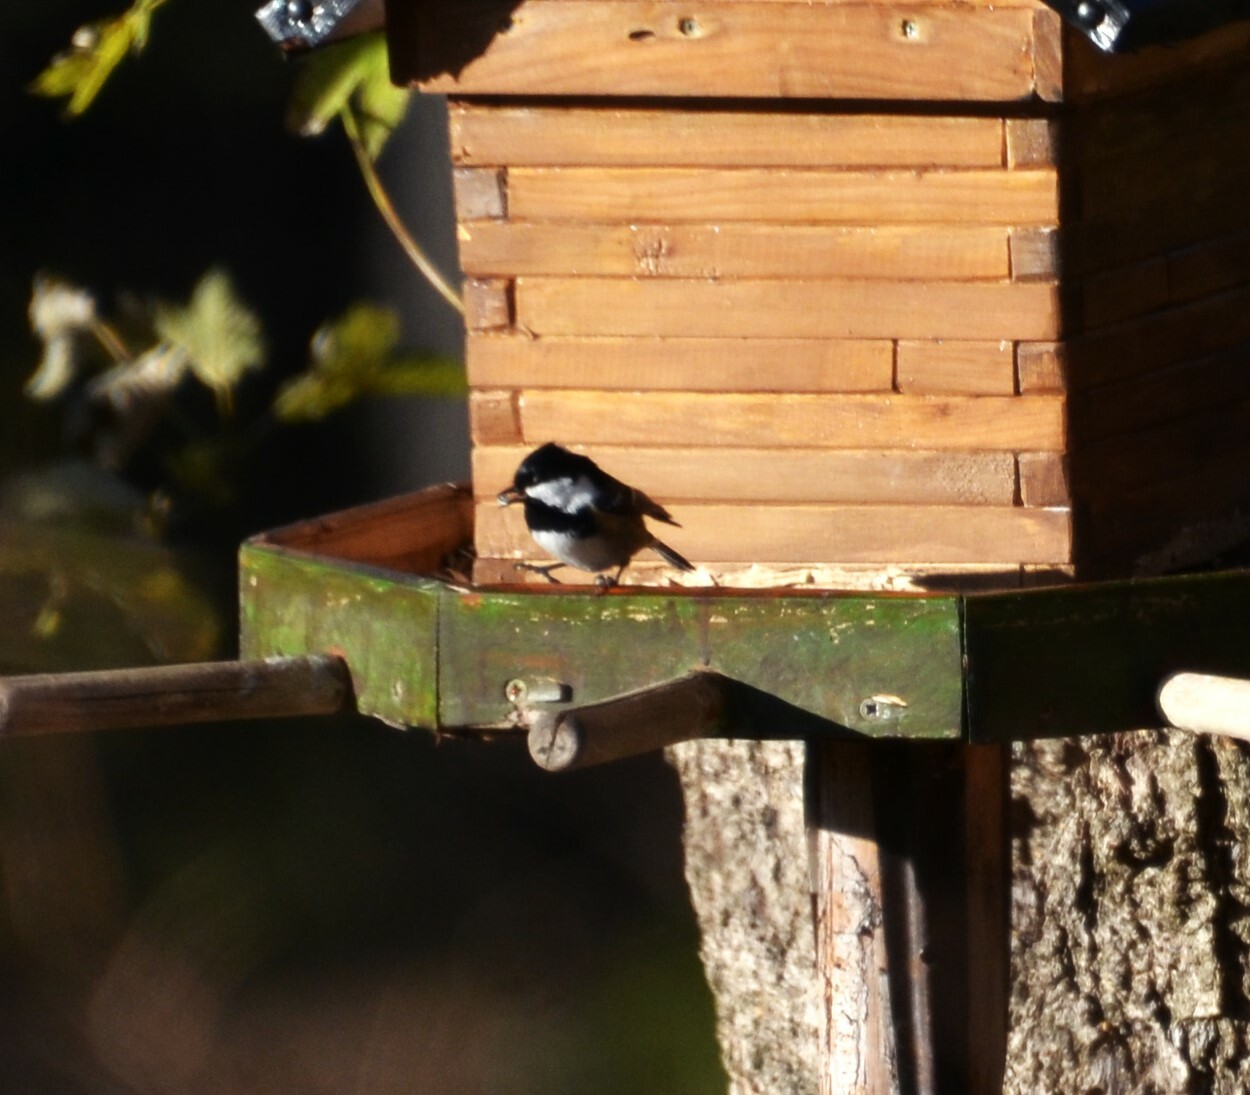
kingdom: Animalia
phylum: Chordata
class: Aves
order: Passeriformes
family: Paridae
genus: Periparus
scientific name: Periparus ater
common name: Coal tit
